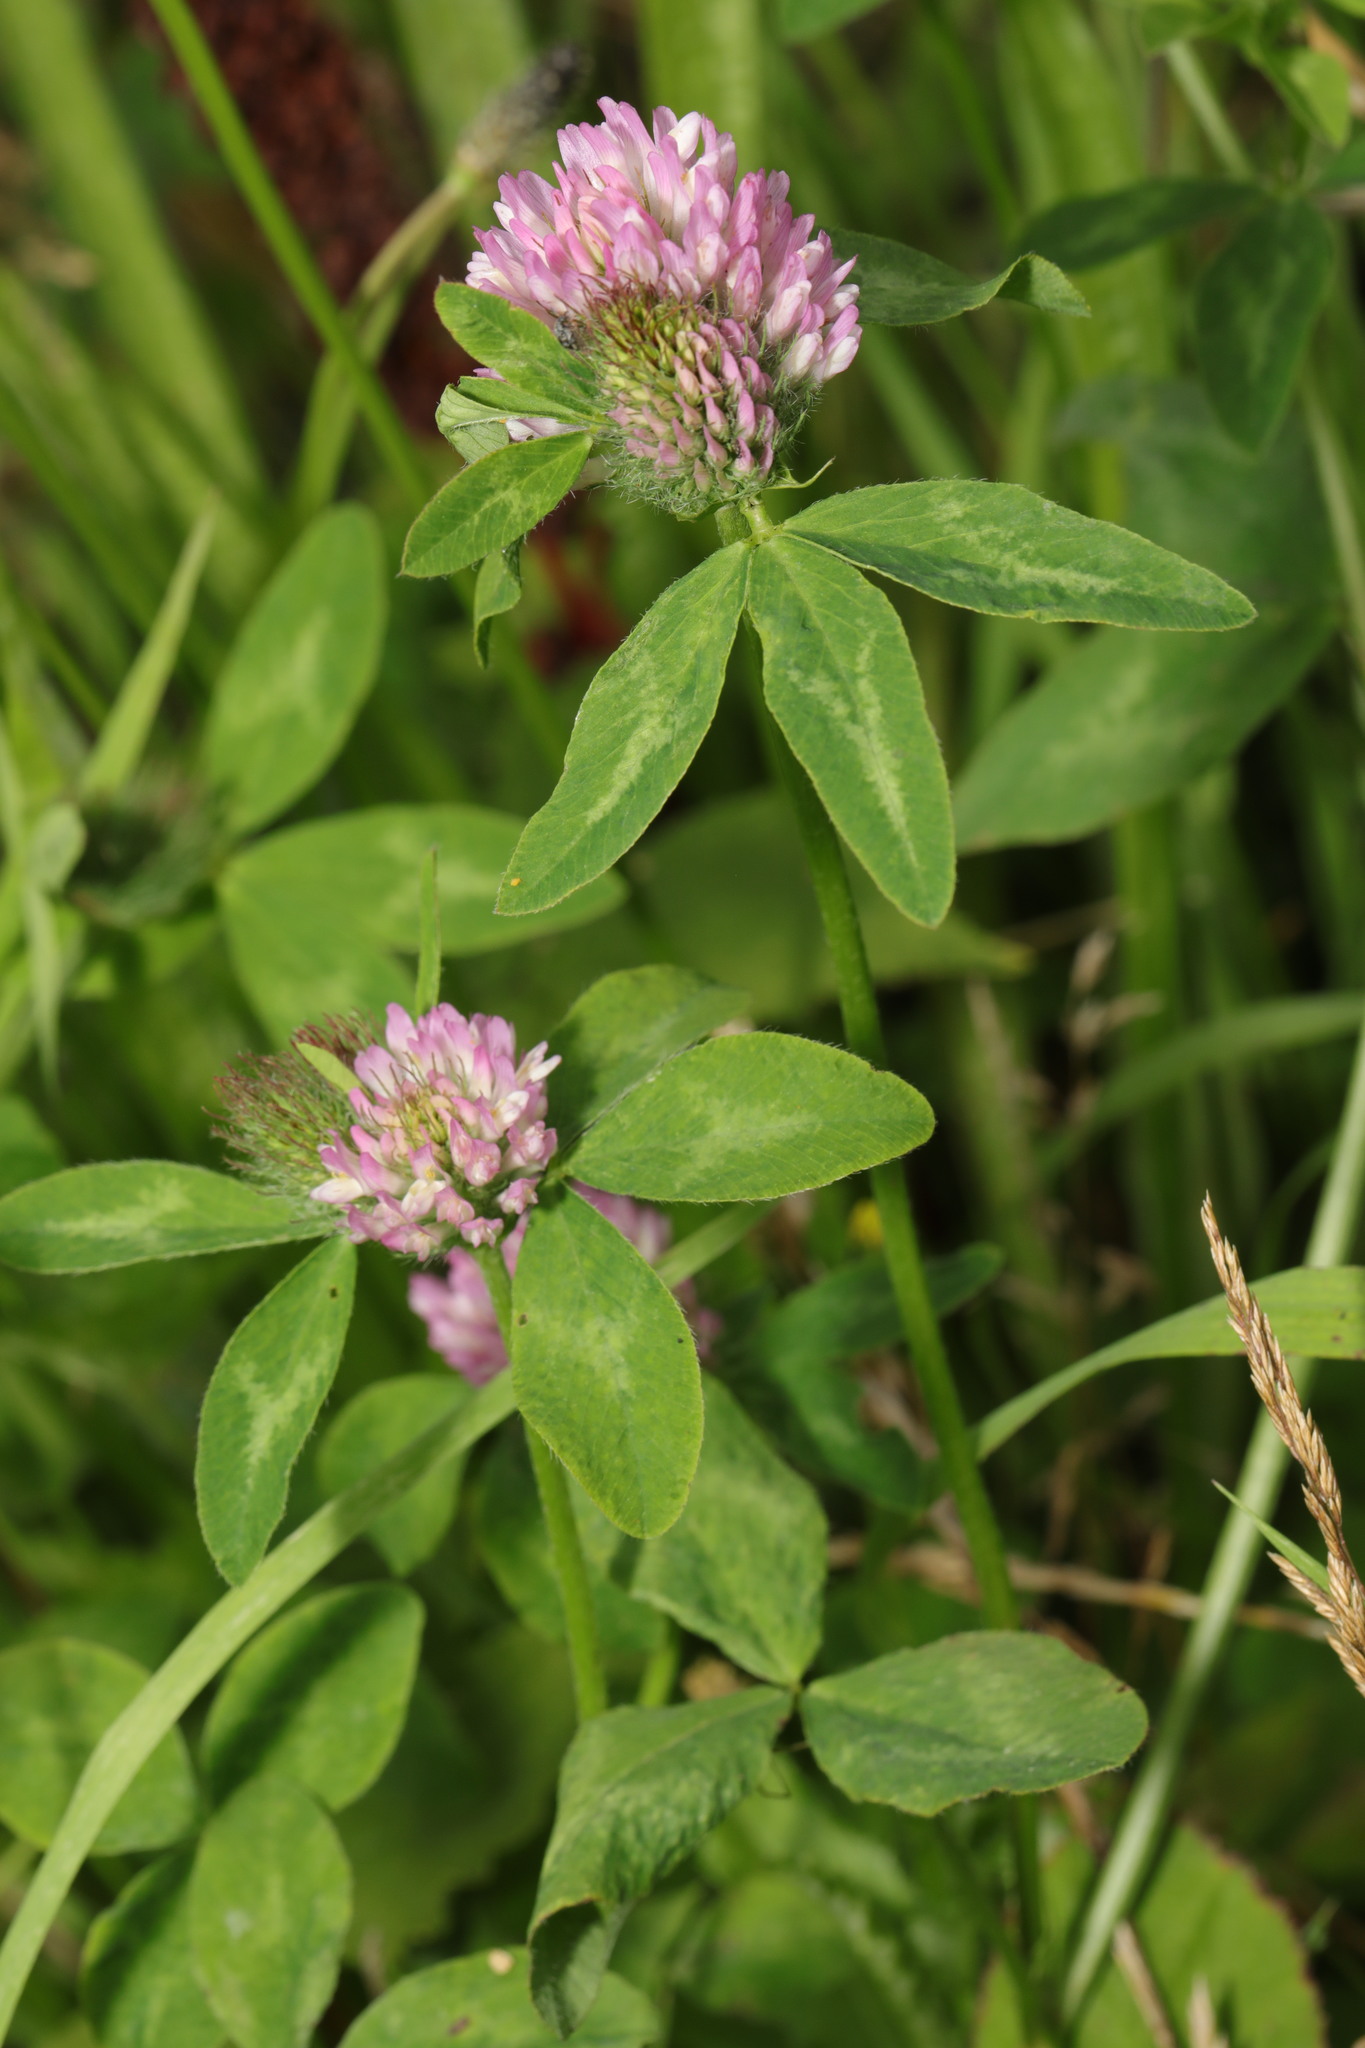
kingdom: Plantae
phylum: Tracheophyta
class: Magnoliopsida
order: Fabales
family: Fabaceae
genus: Trifolium
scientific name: Trifolium pratense
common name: Red clover
